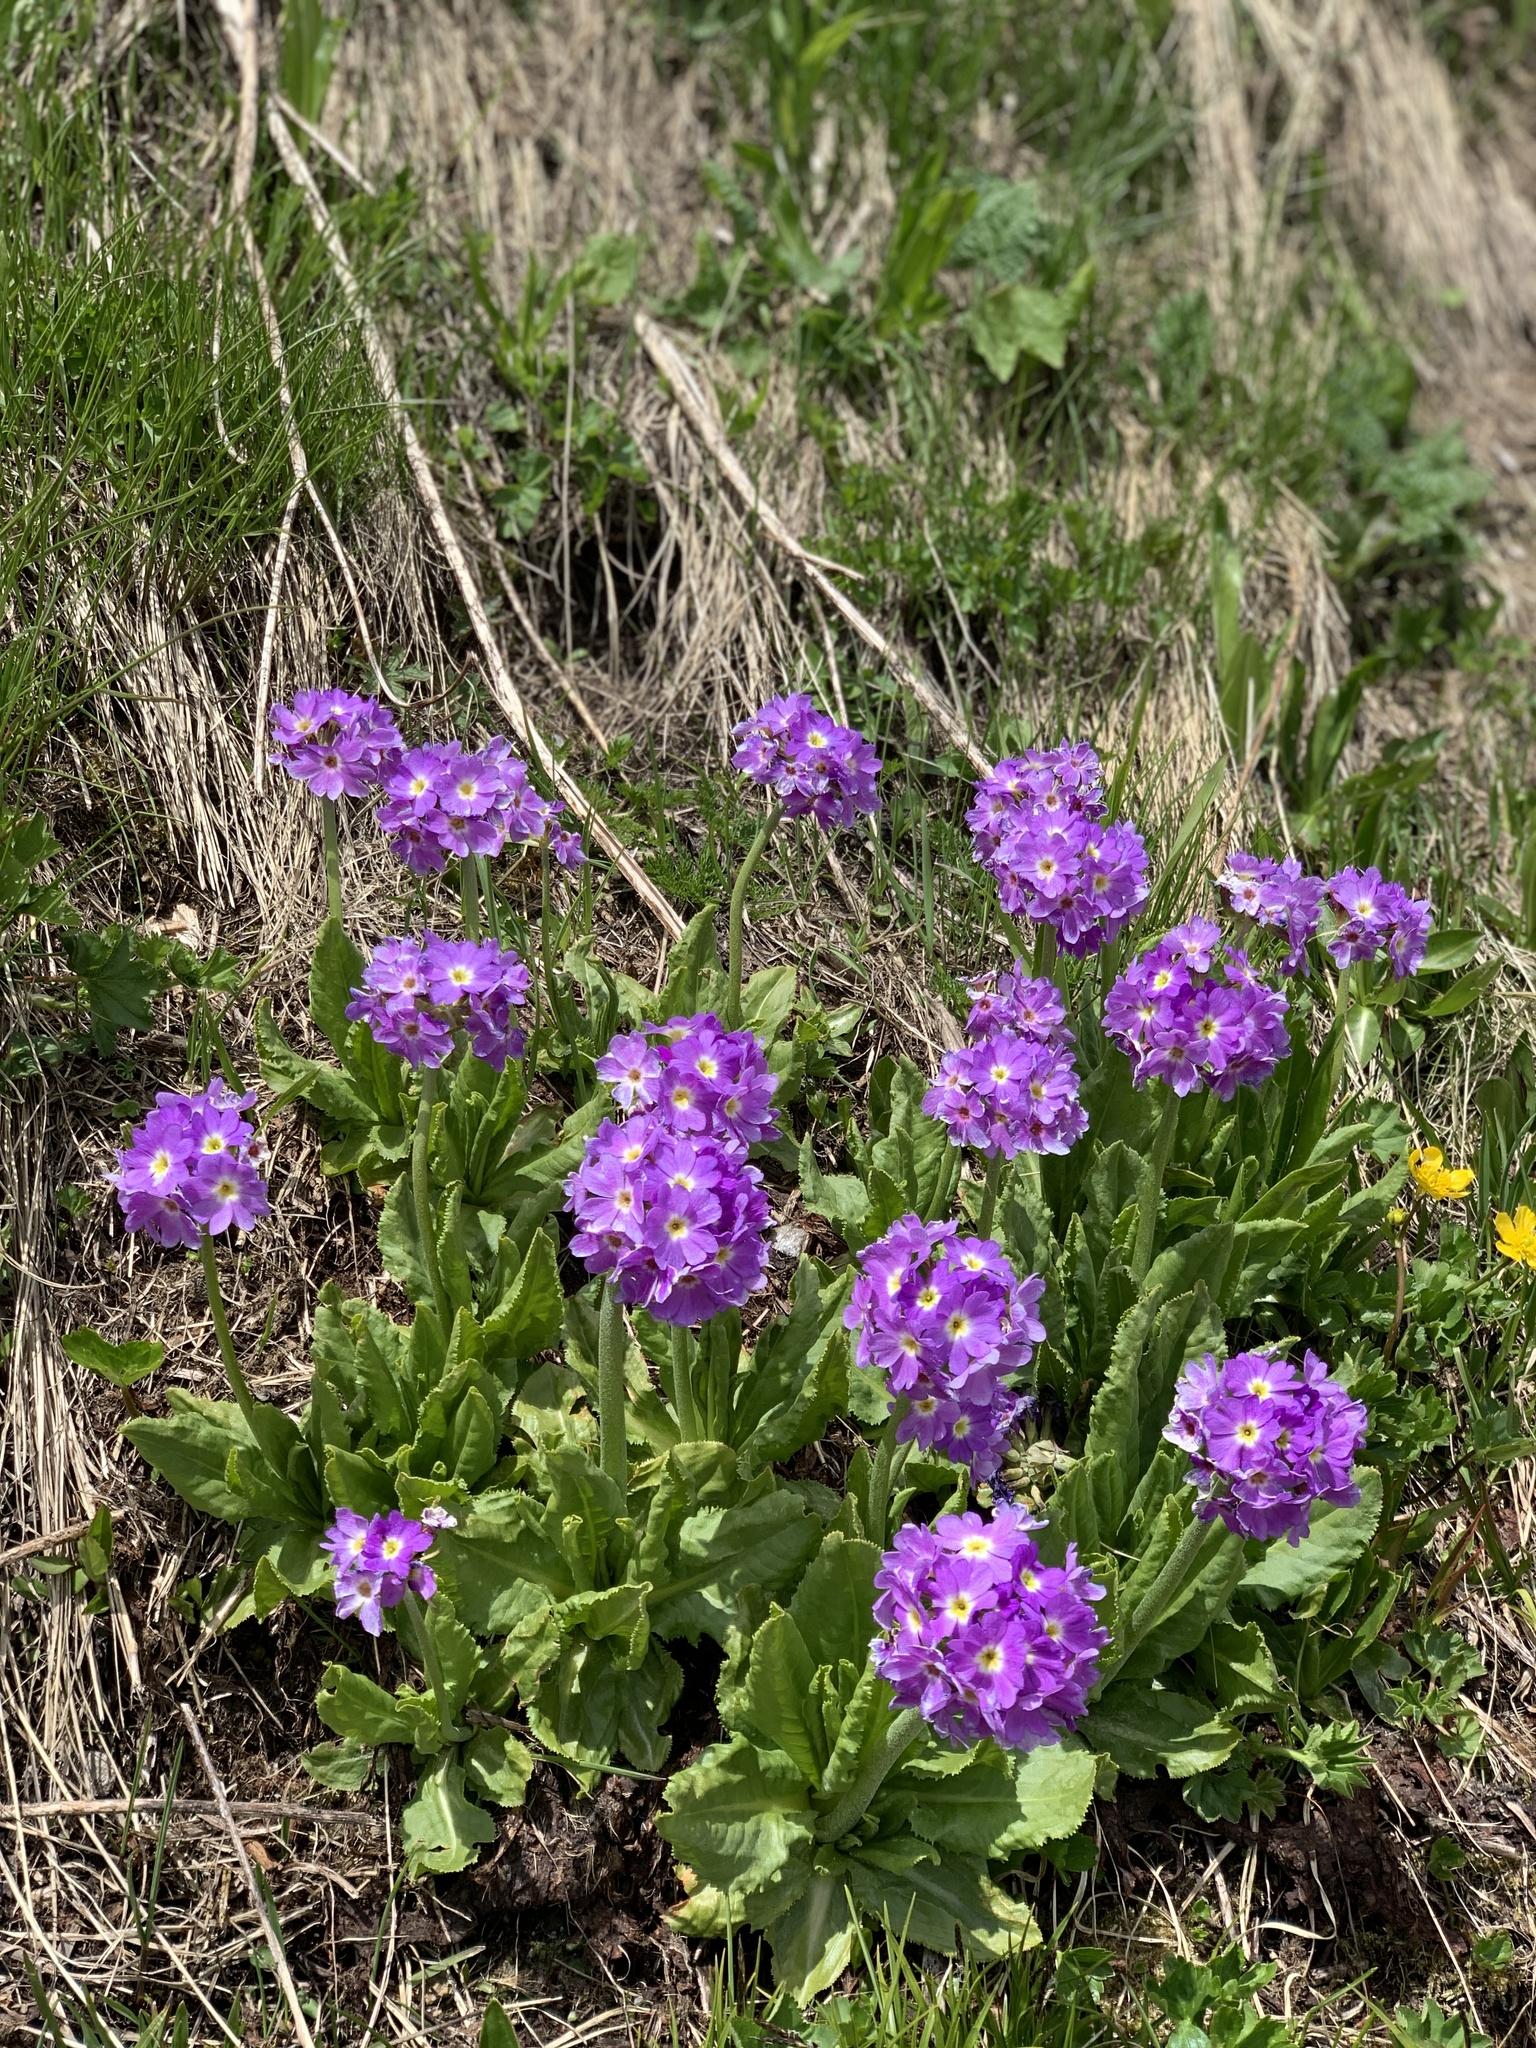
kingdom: Plantae
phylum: Tracheophyta
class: Magnoliopsida
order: Ericales
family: Primulaceae
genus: Primula
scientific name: Primula auriculata
